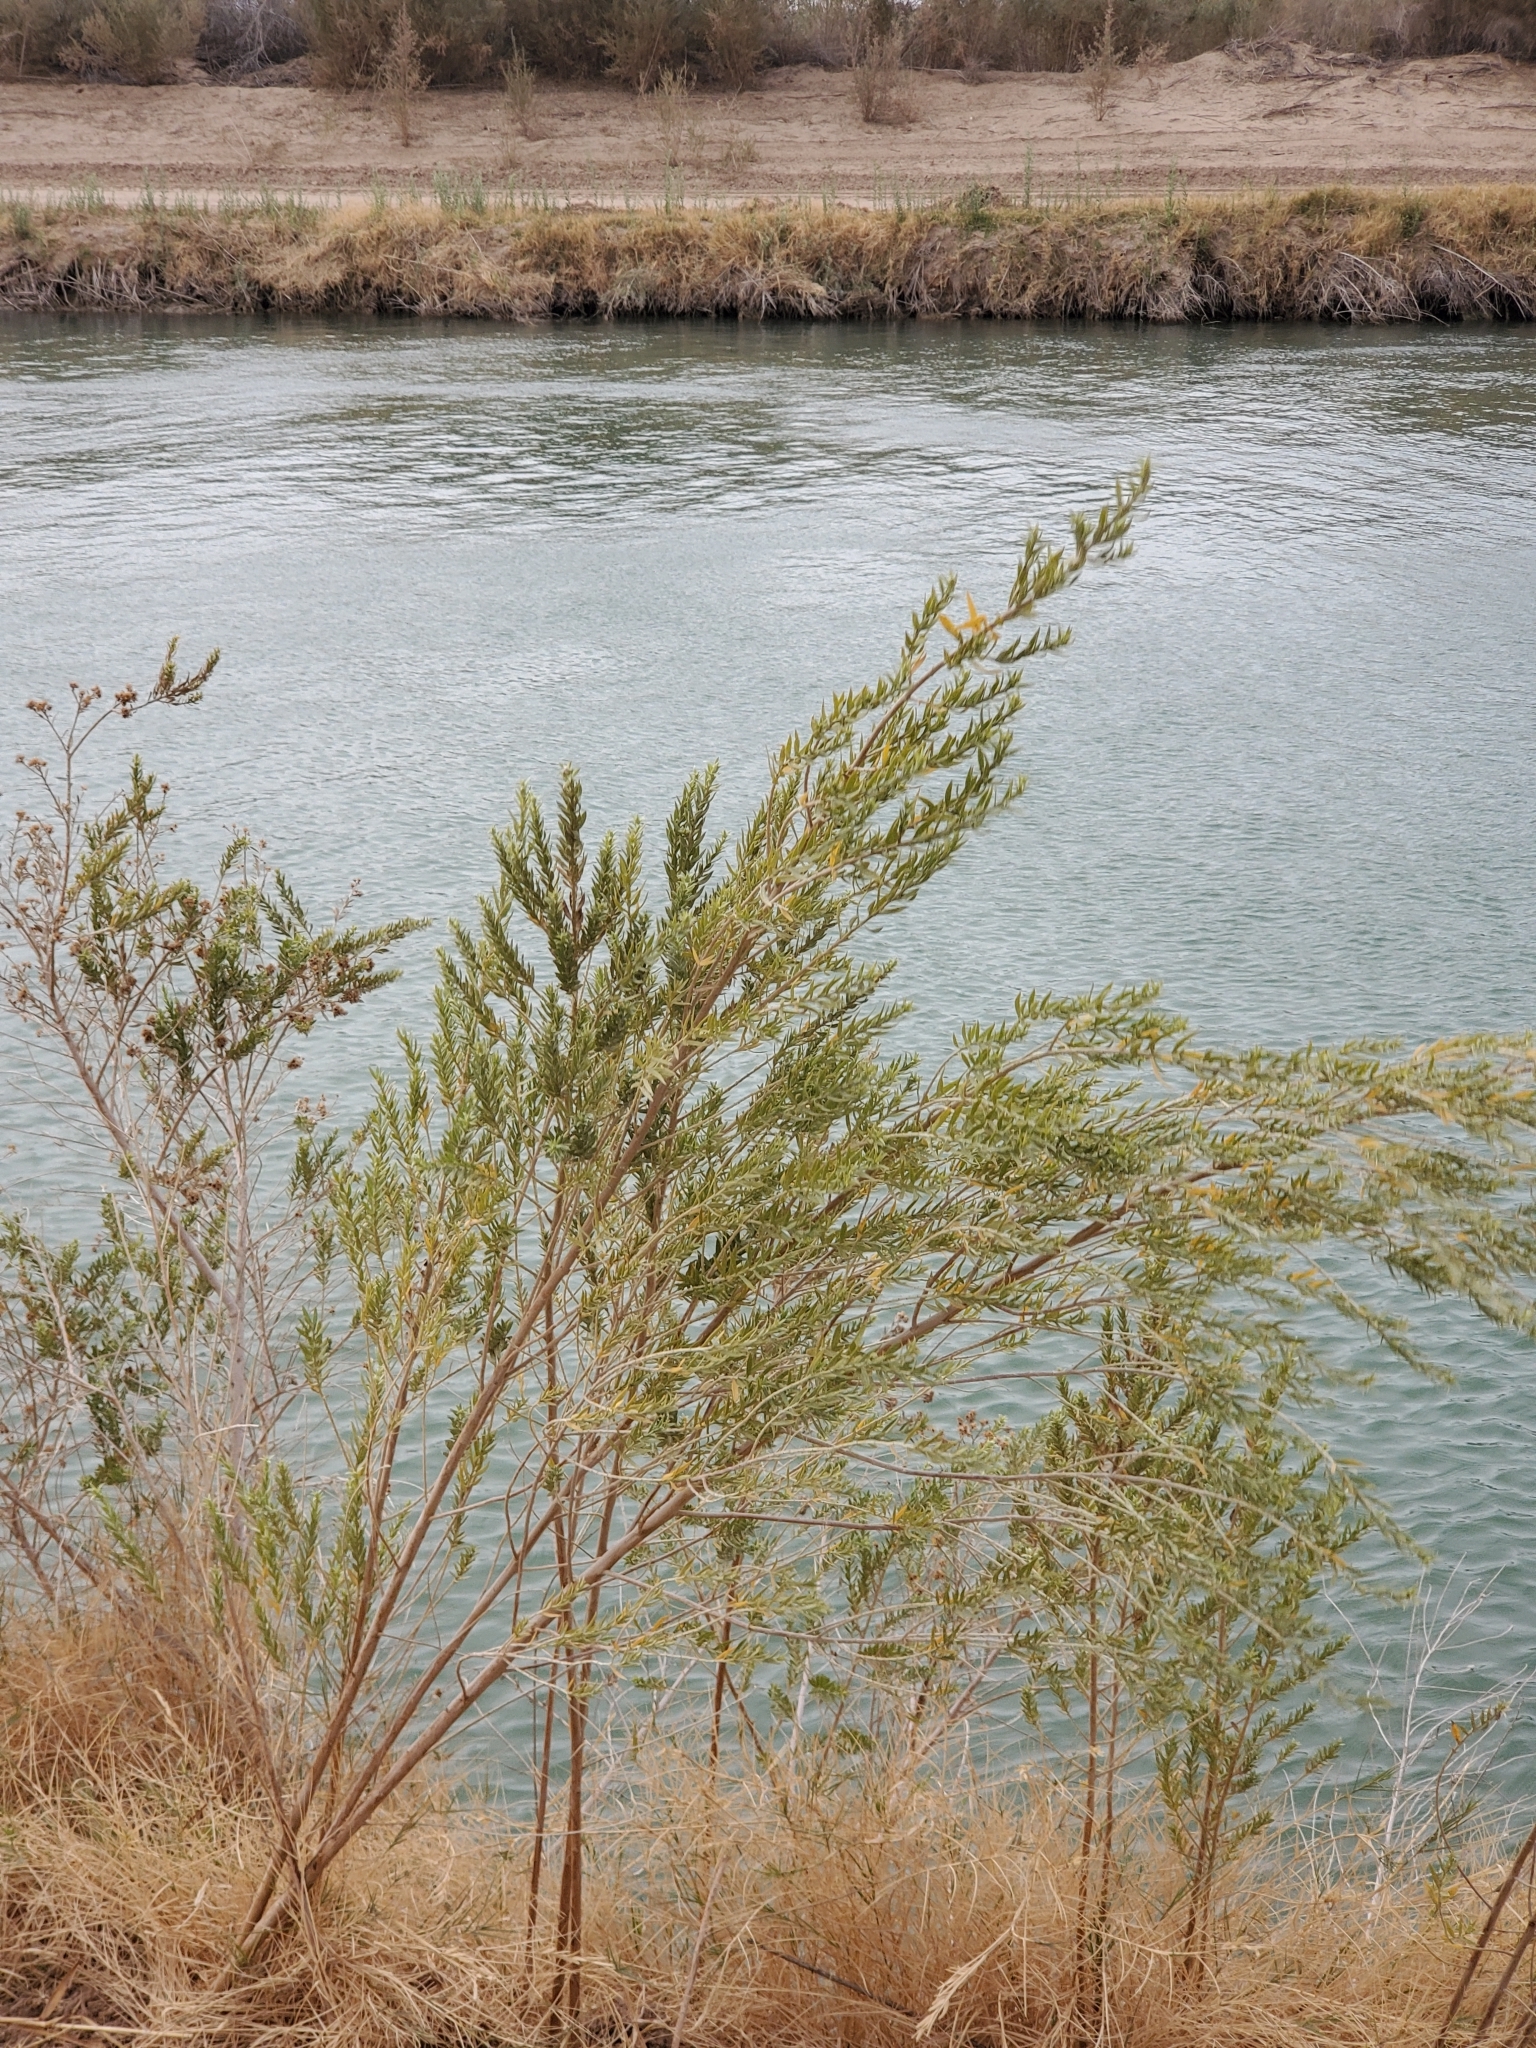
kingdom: Plantae
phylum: Tracheophyta
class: Magnoliopsida
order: Asterales
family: Asteraceae
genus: Pluchea
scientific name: Pluchea sericea
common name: Arrow-weed
